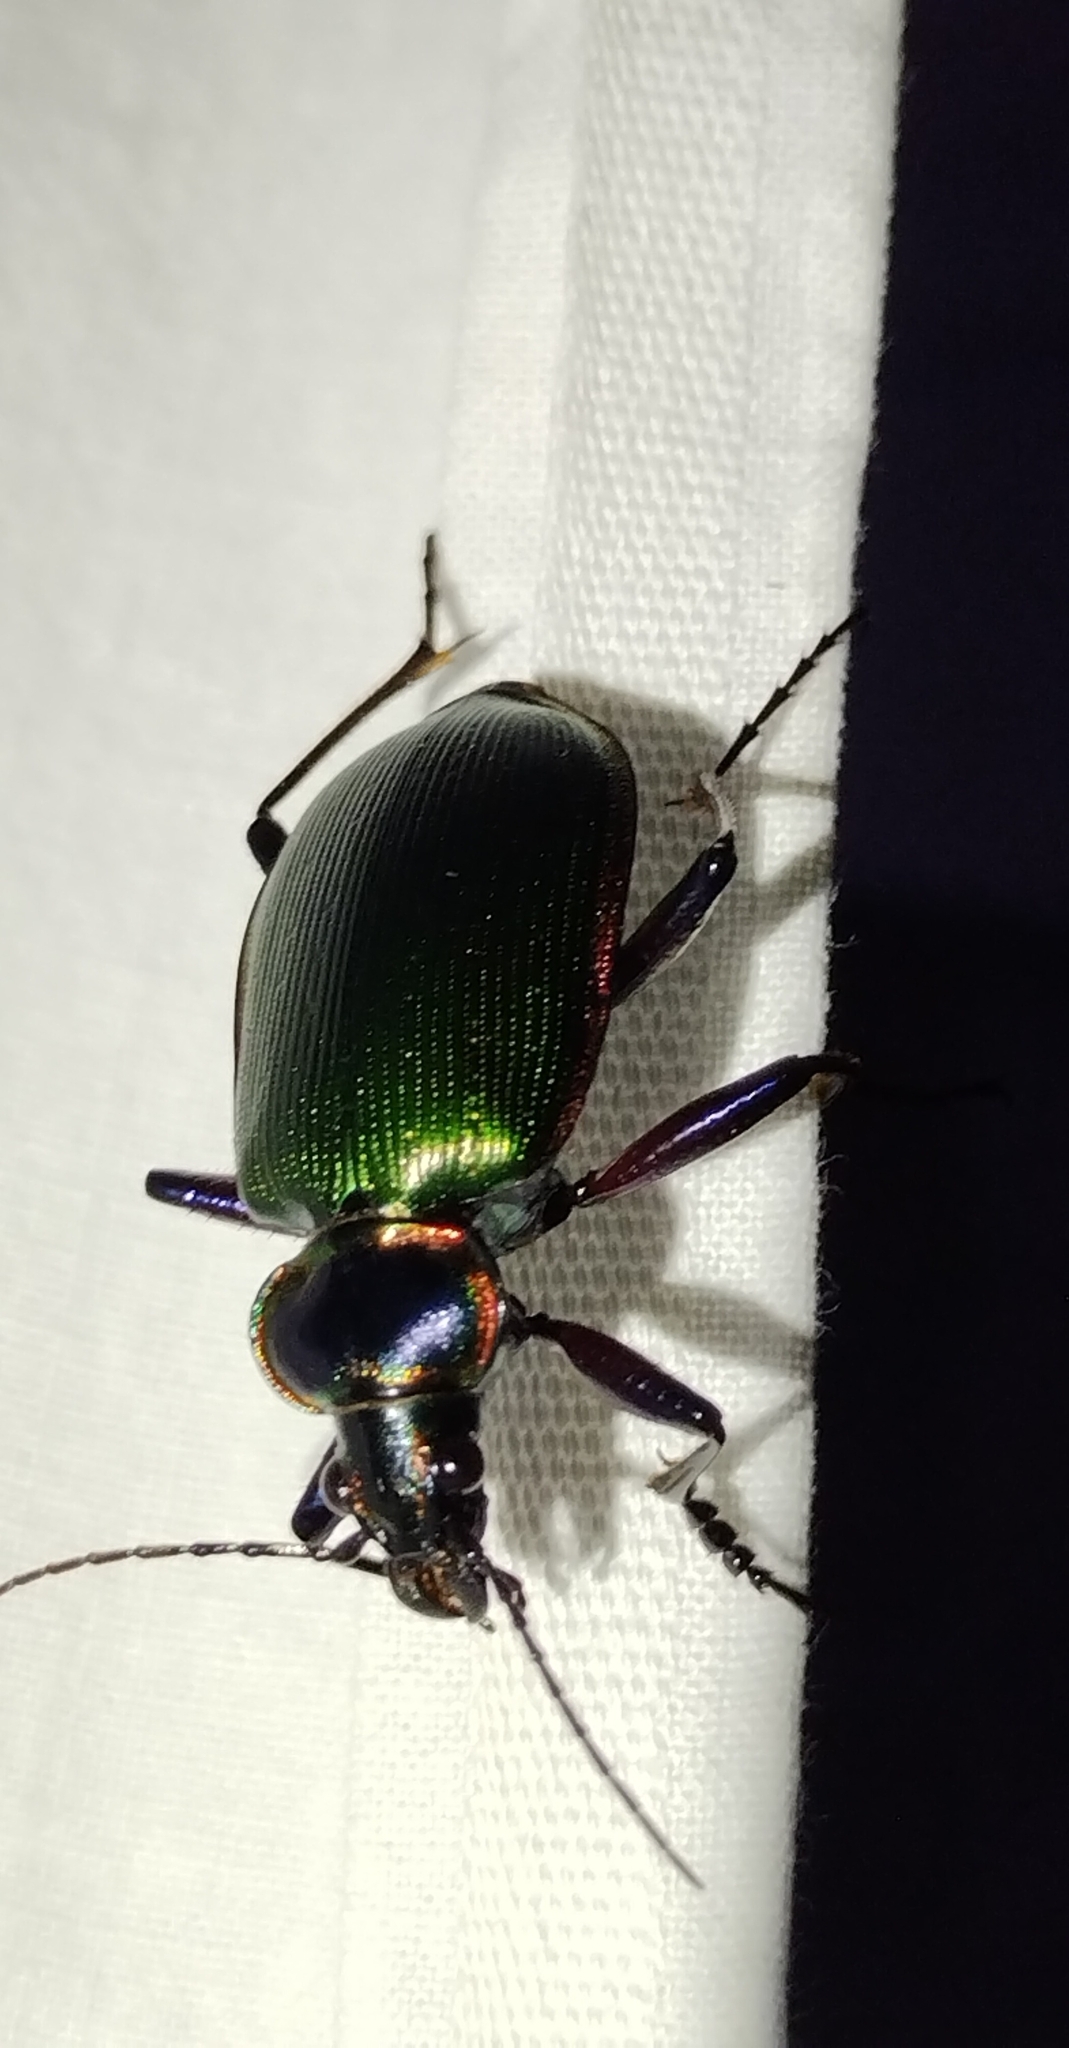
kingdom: Animalia
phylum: Arthropoda
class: Insecta
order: Coleoptera
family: Carabidae
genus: Calosoma
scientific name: Calosoma scrutator
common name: Fiery searcher beetle
